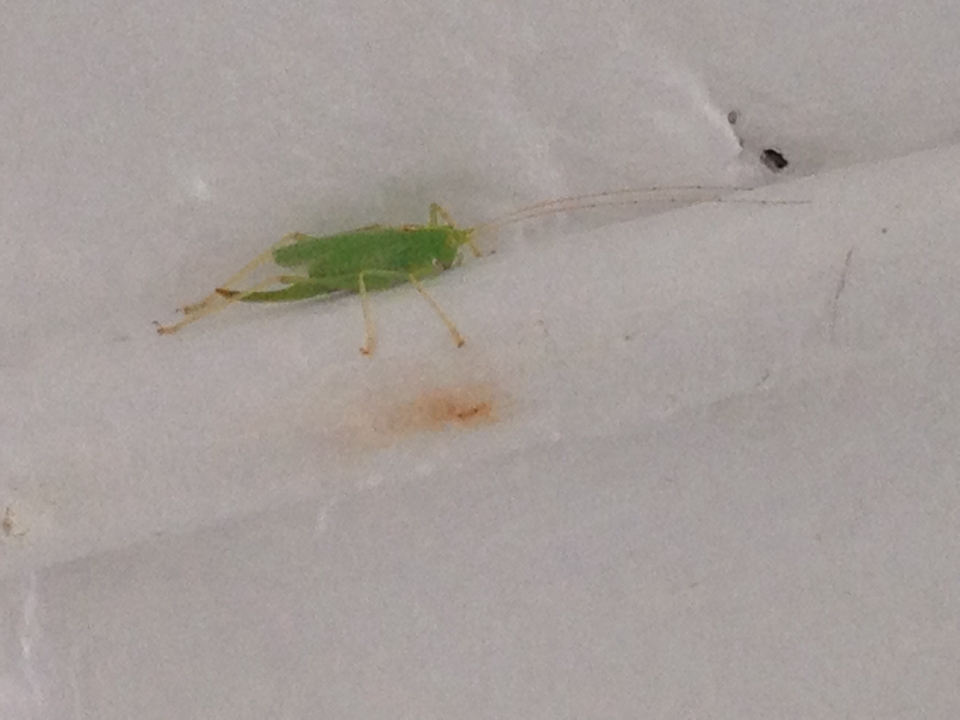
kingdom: Animalia
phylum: Arthropoda
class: Insecta
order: Orthoptera
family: Tettigoniidae
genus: Meconema
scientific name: Meconema thalassinum
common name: Oak bush-cricket
